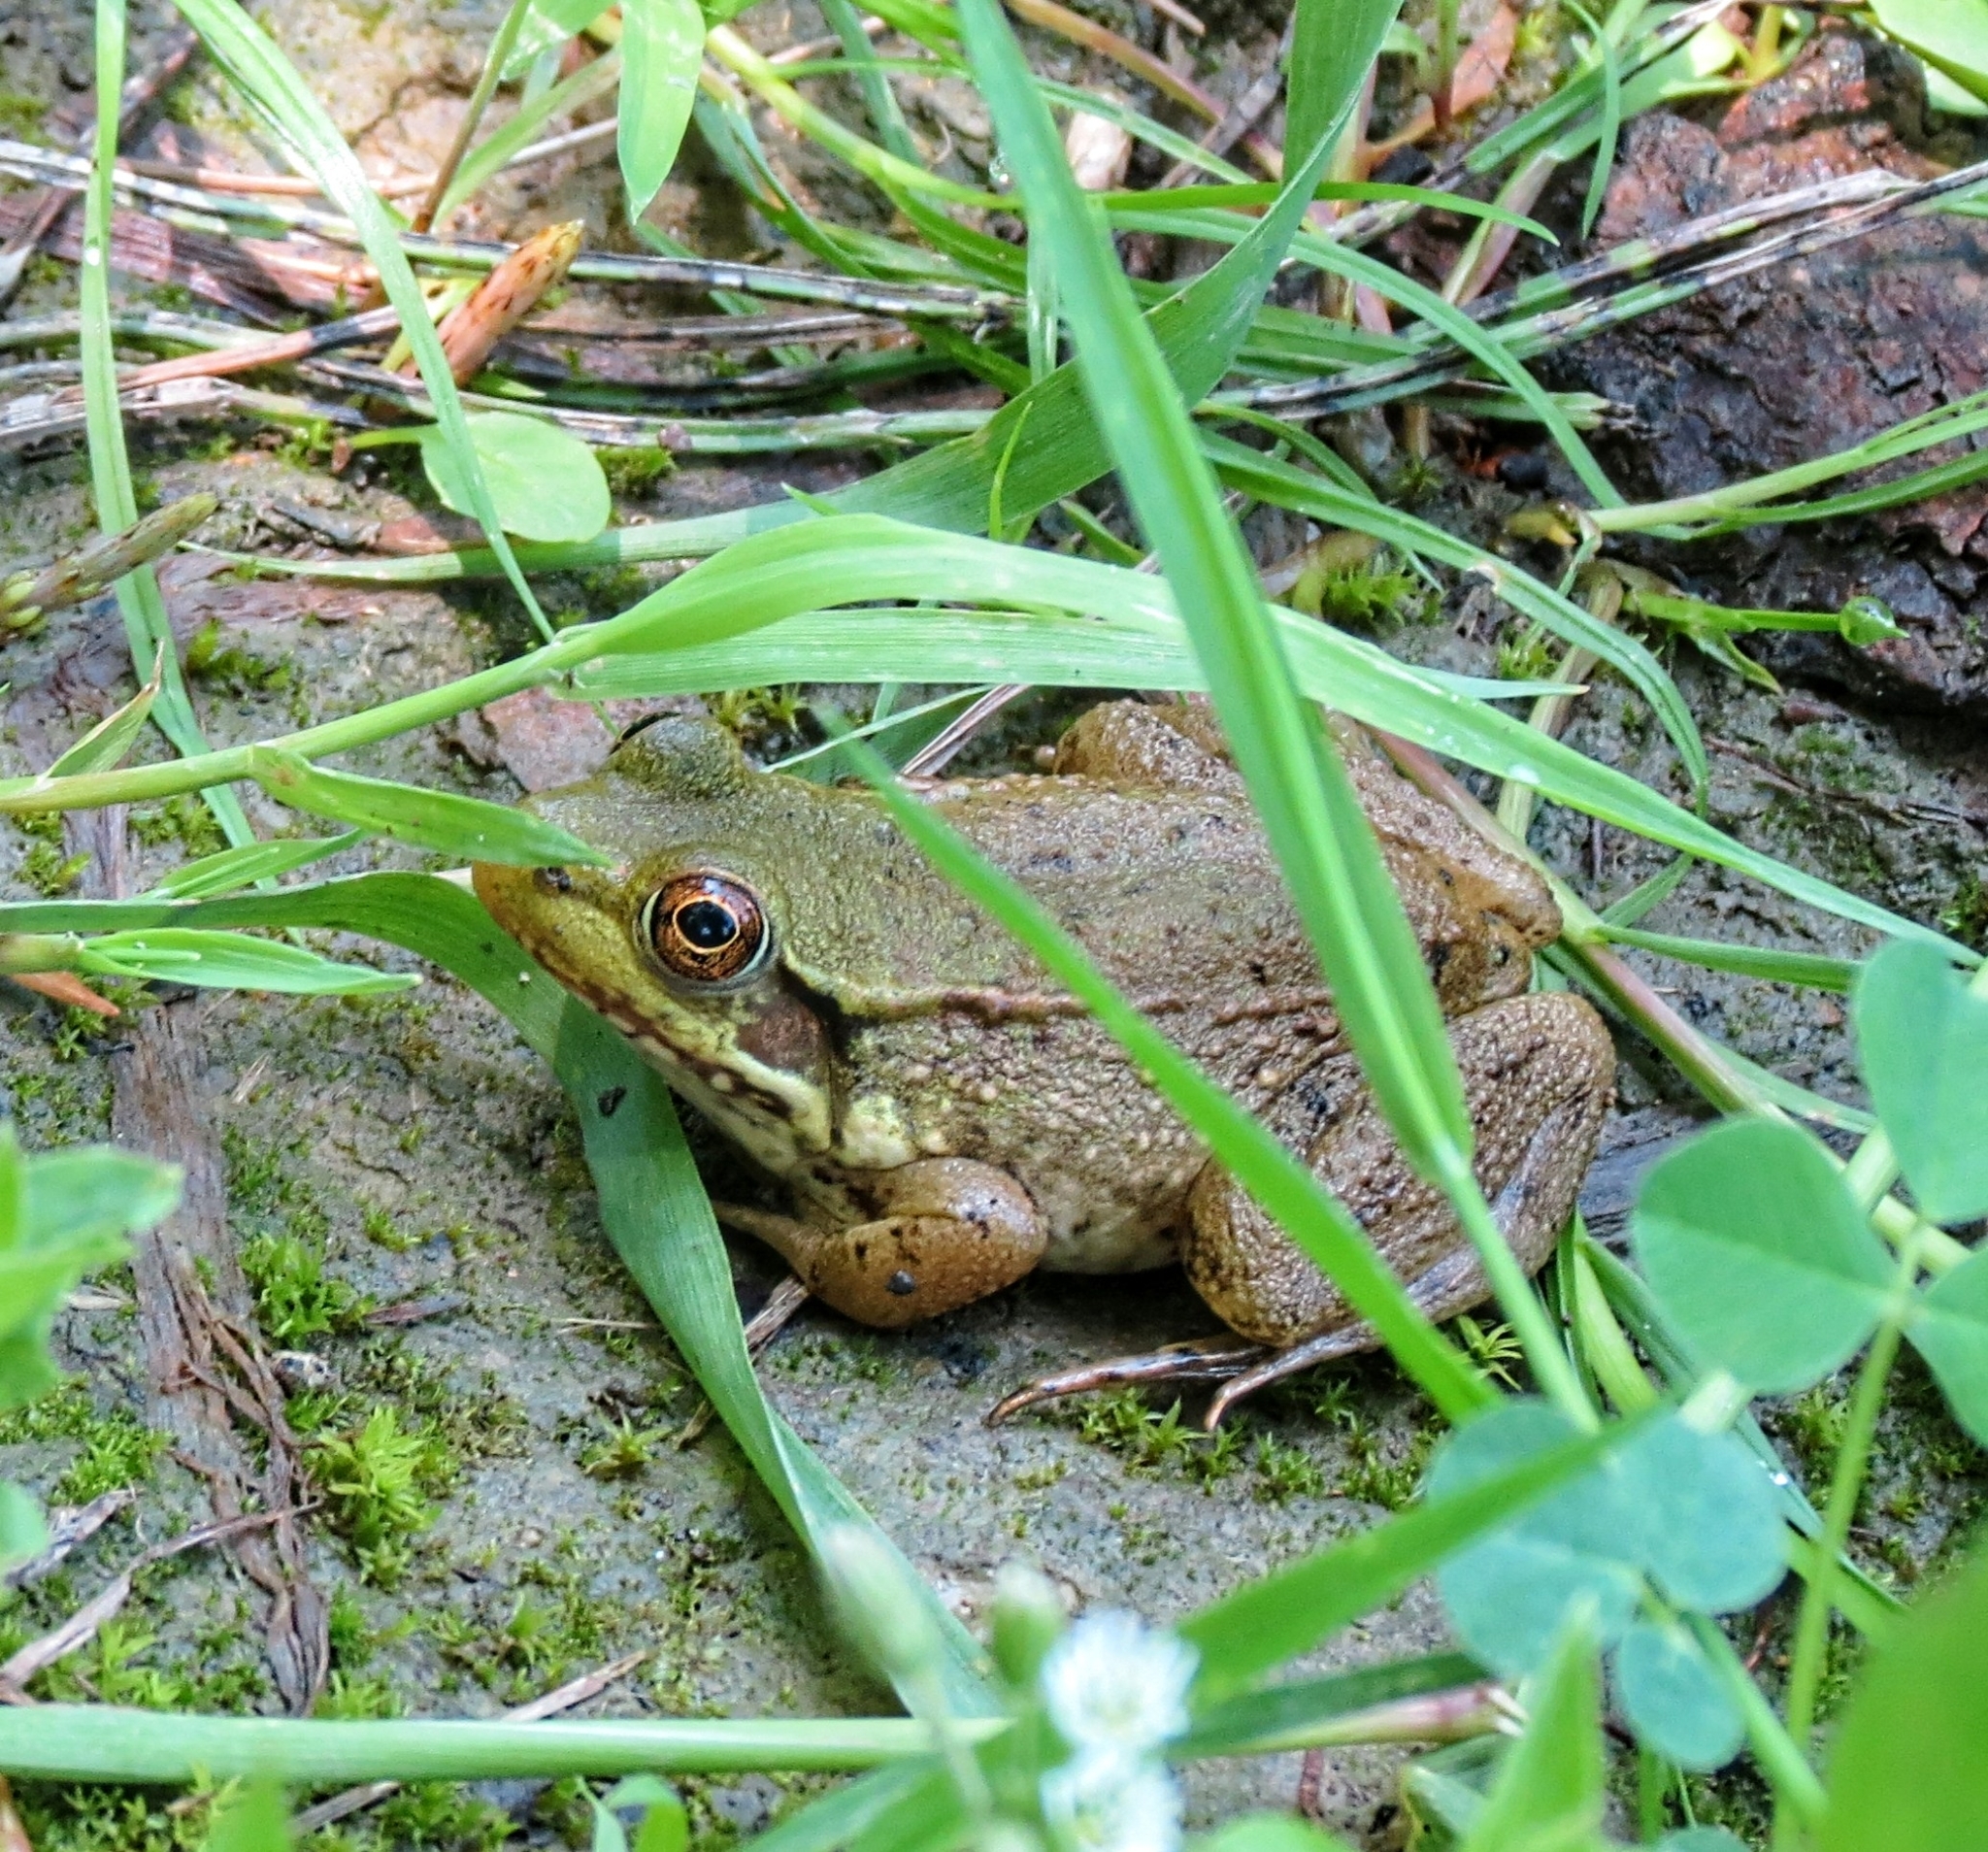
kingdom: Animalia
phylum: Chordata
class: Amphibia
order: Anura
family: Ranidae
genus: Lithobates
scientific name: Lithobates clamitans
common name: Green frog
